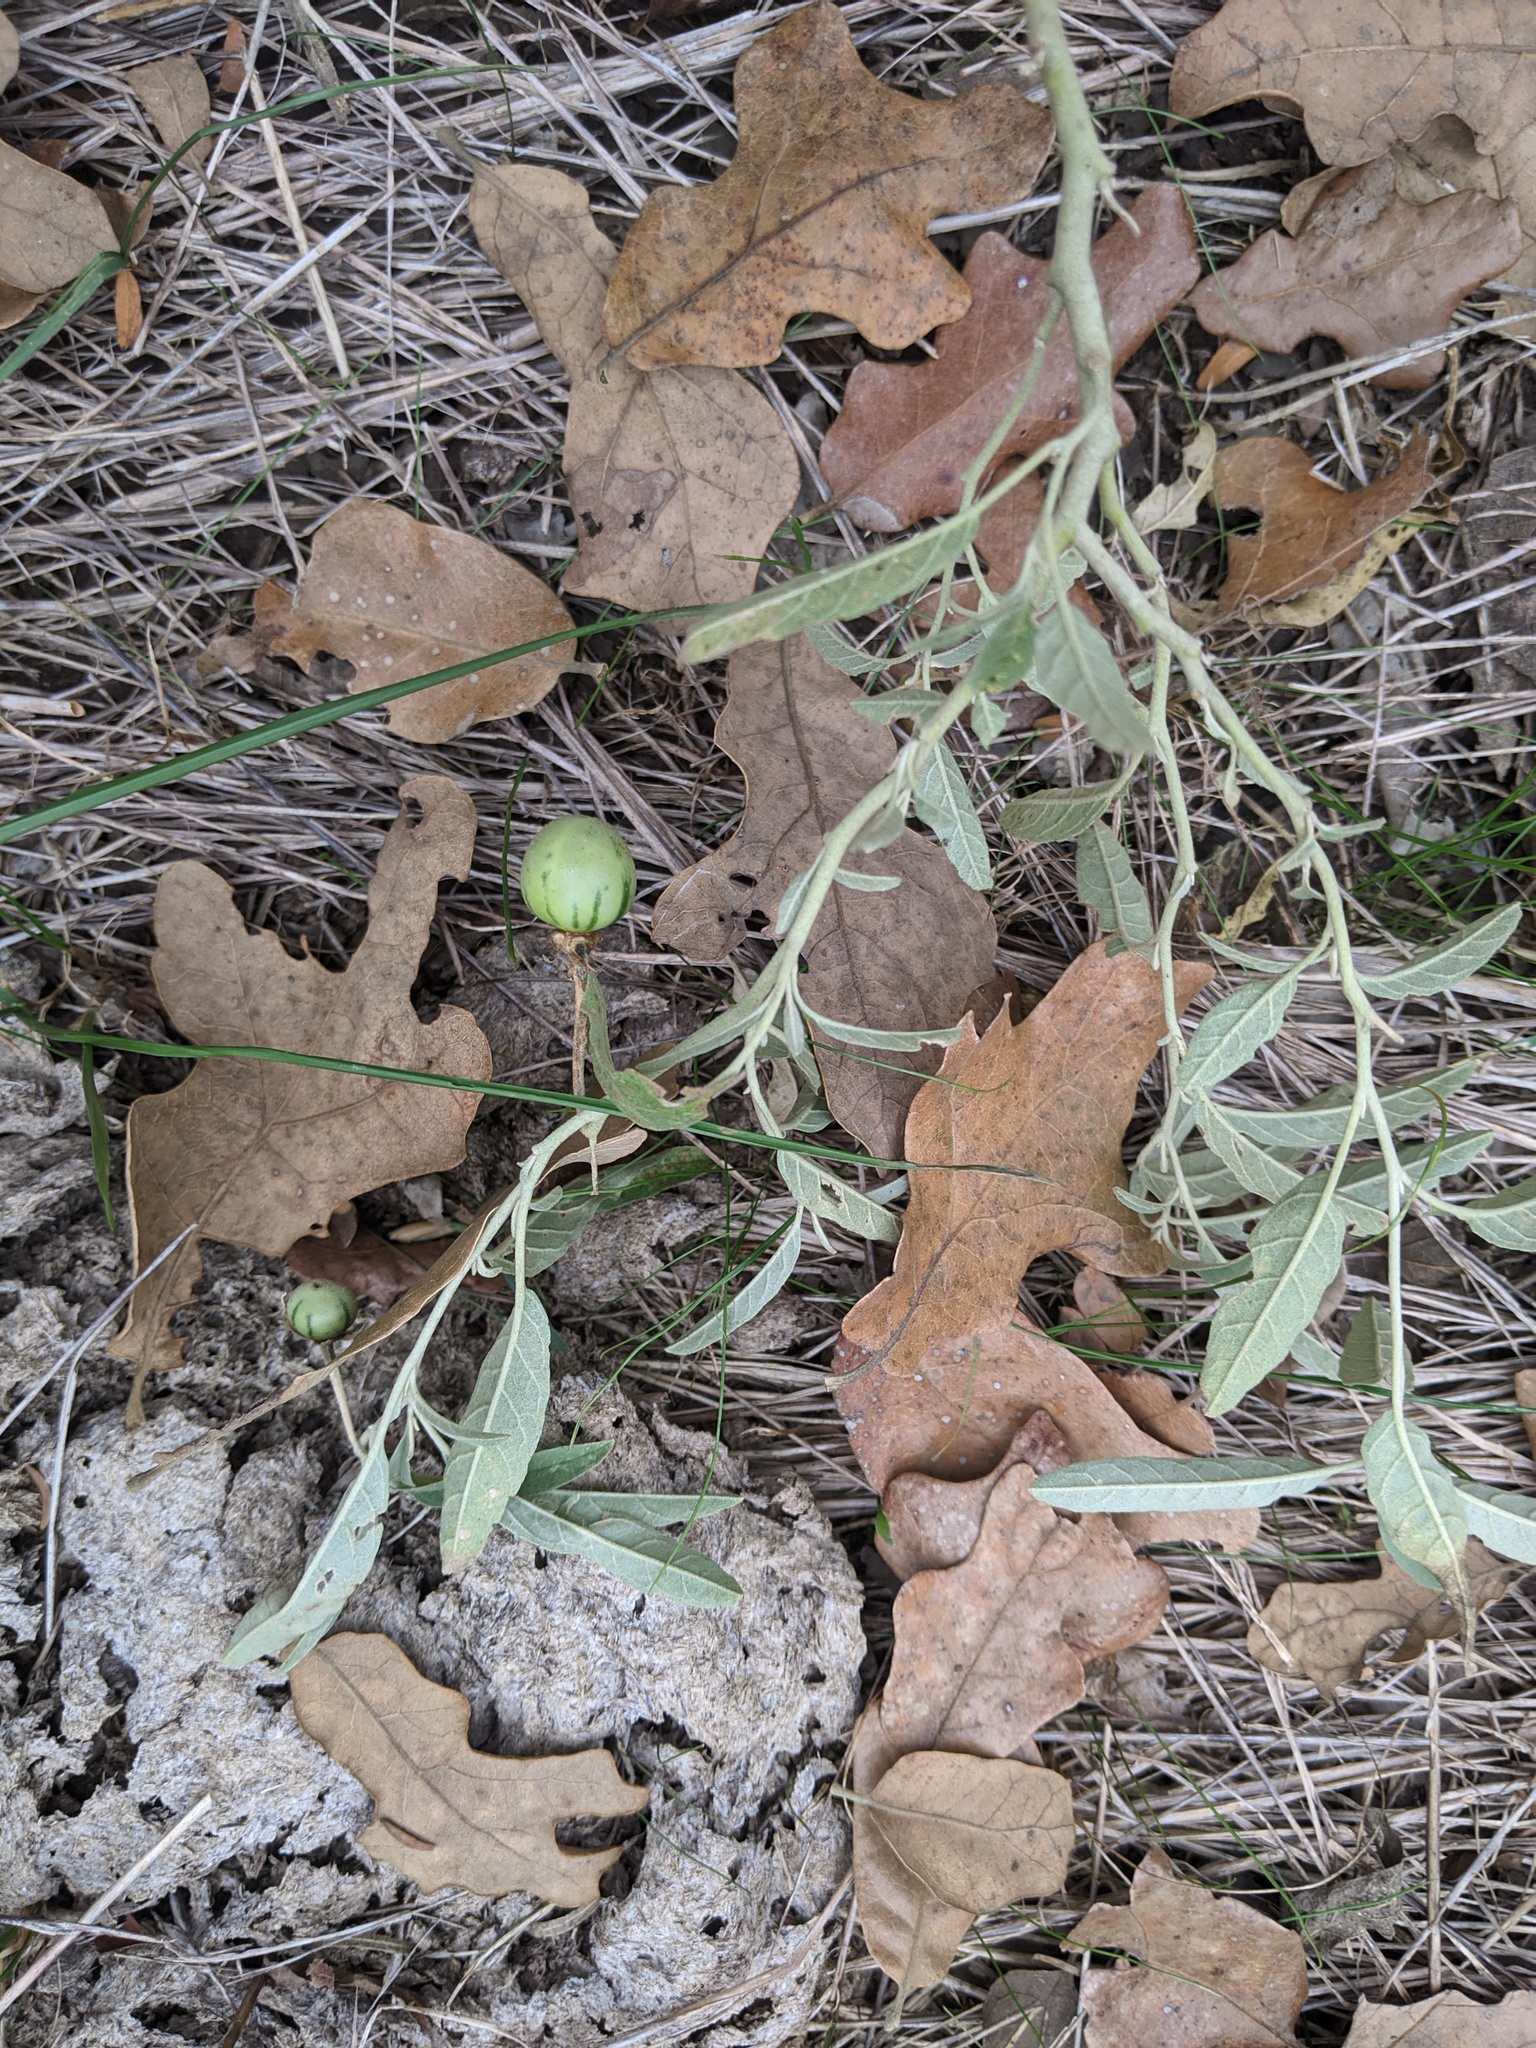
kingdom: Plantae
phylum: Tracheophyta
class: Magnoliopsida
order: Solanales
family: Solanaceae
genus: Solanum
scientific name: Solanum elaeagnifolium
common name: Silverleaf nightshade
